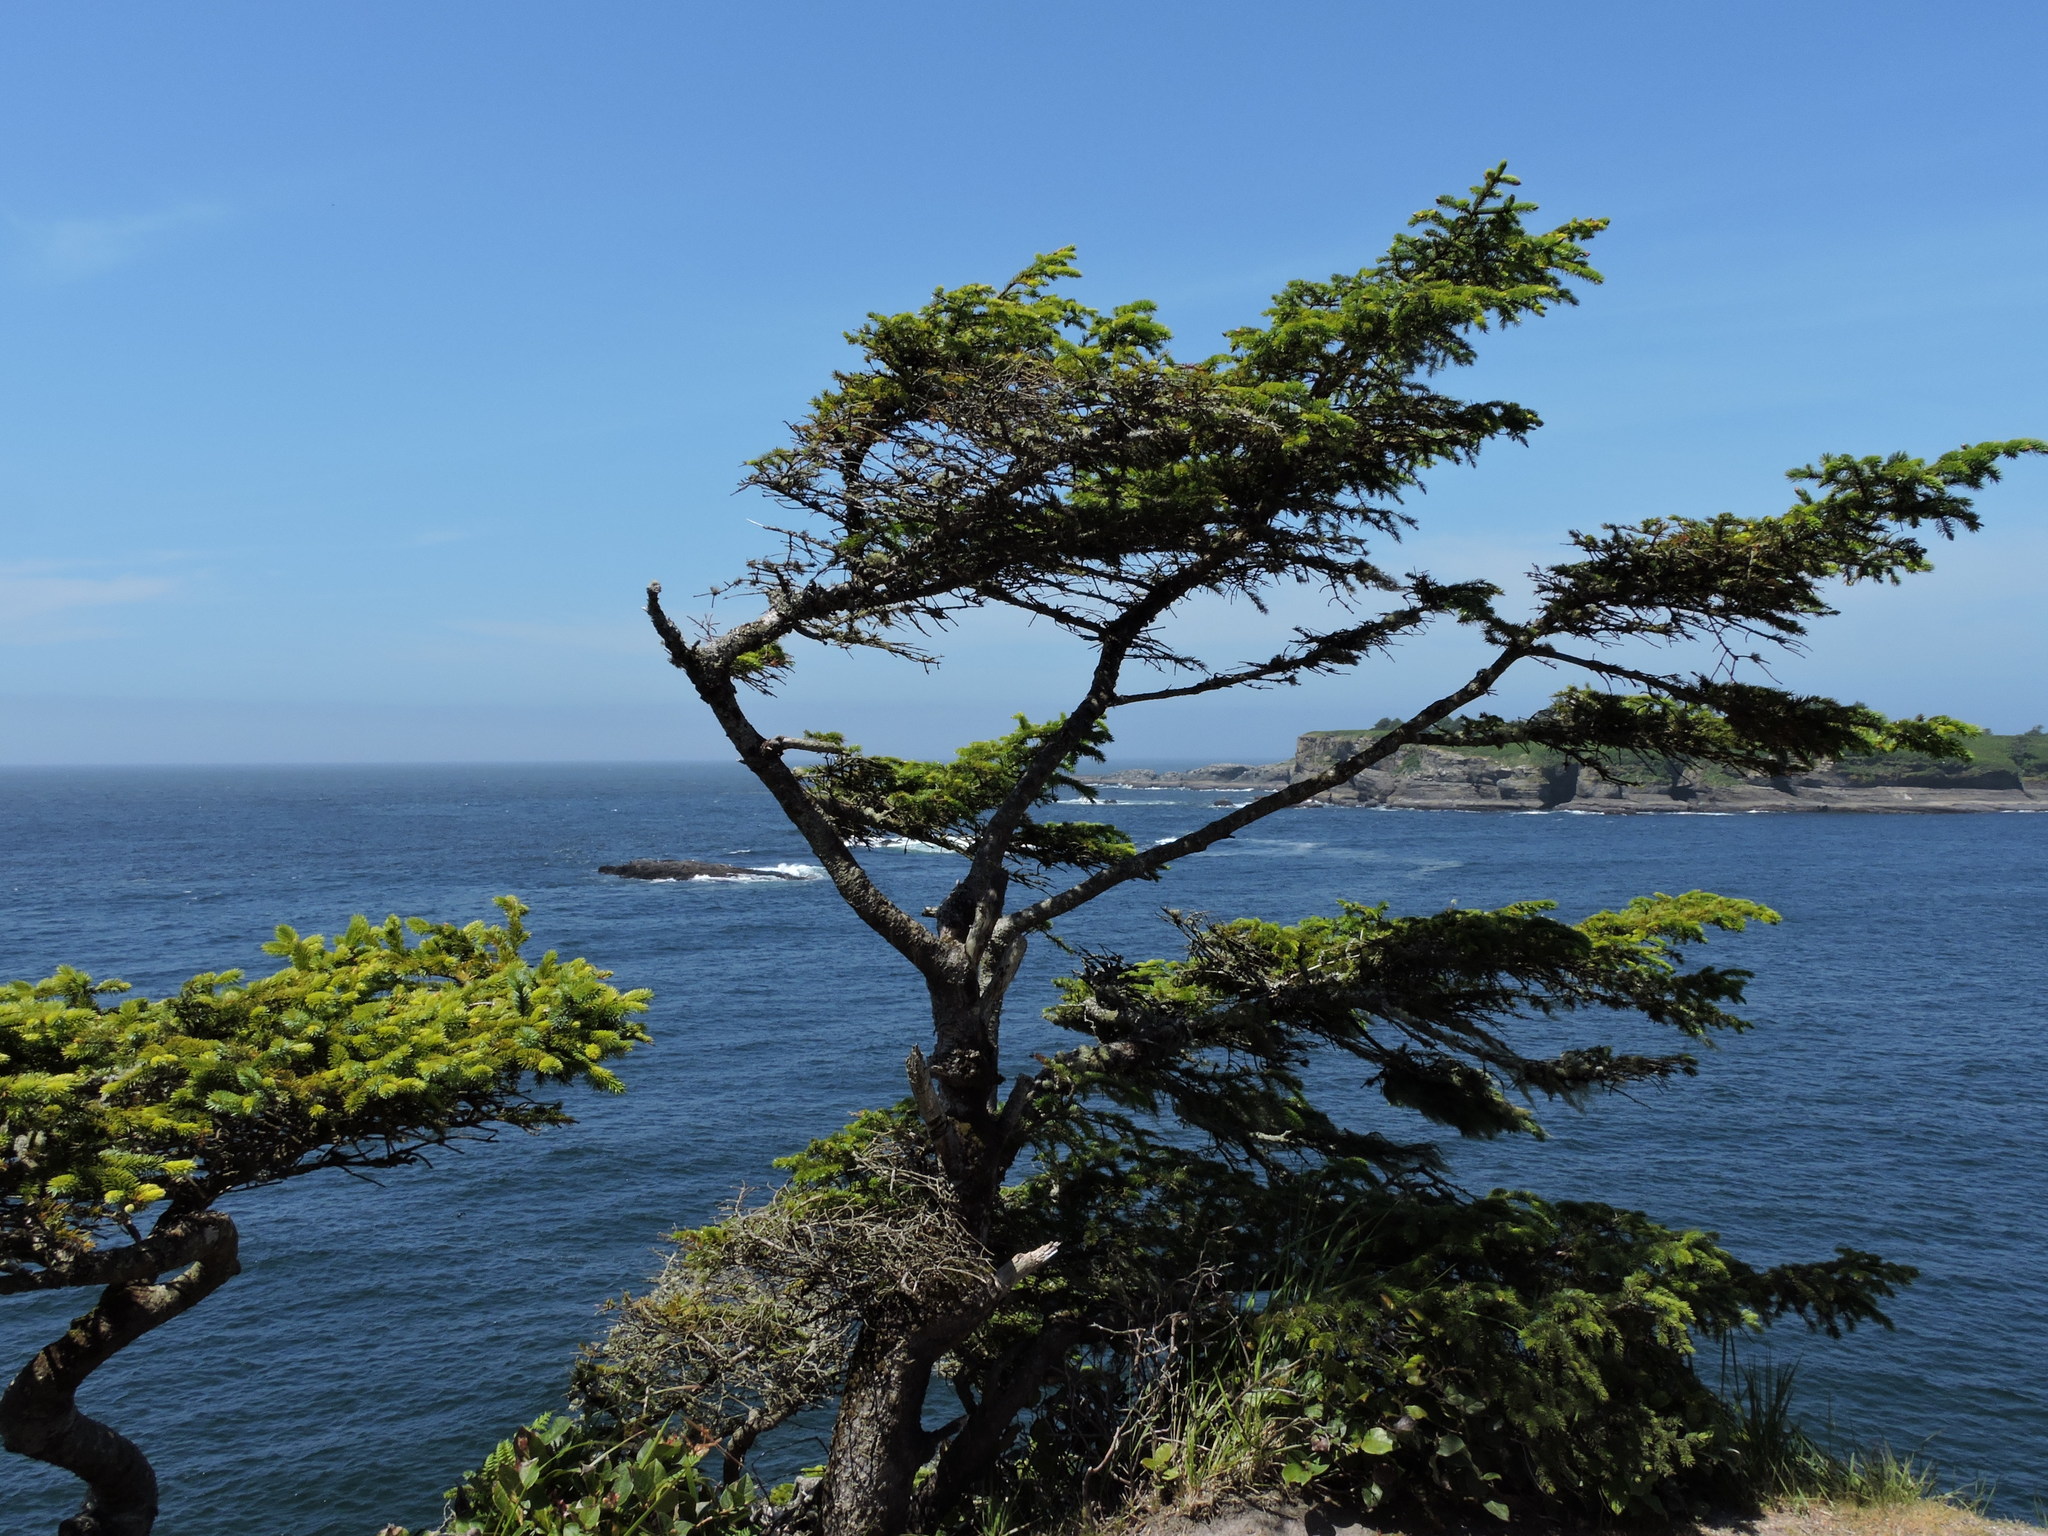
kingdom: Plantae
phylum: Tracheophyta
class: Pinopsida
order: Pinales
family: Pinaceae
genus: Picea
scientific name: Picea sitchensis
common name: Sitka spruce
